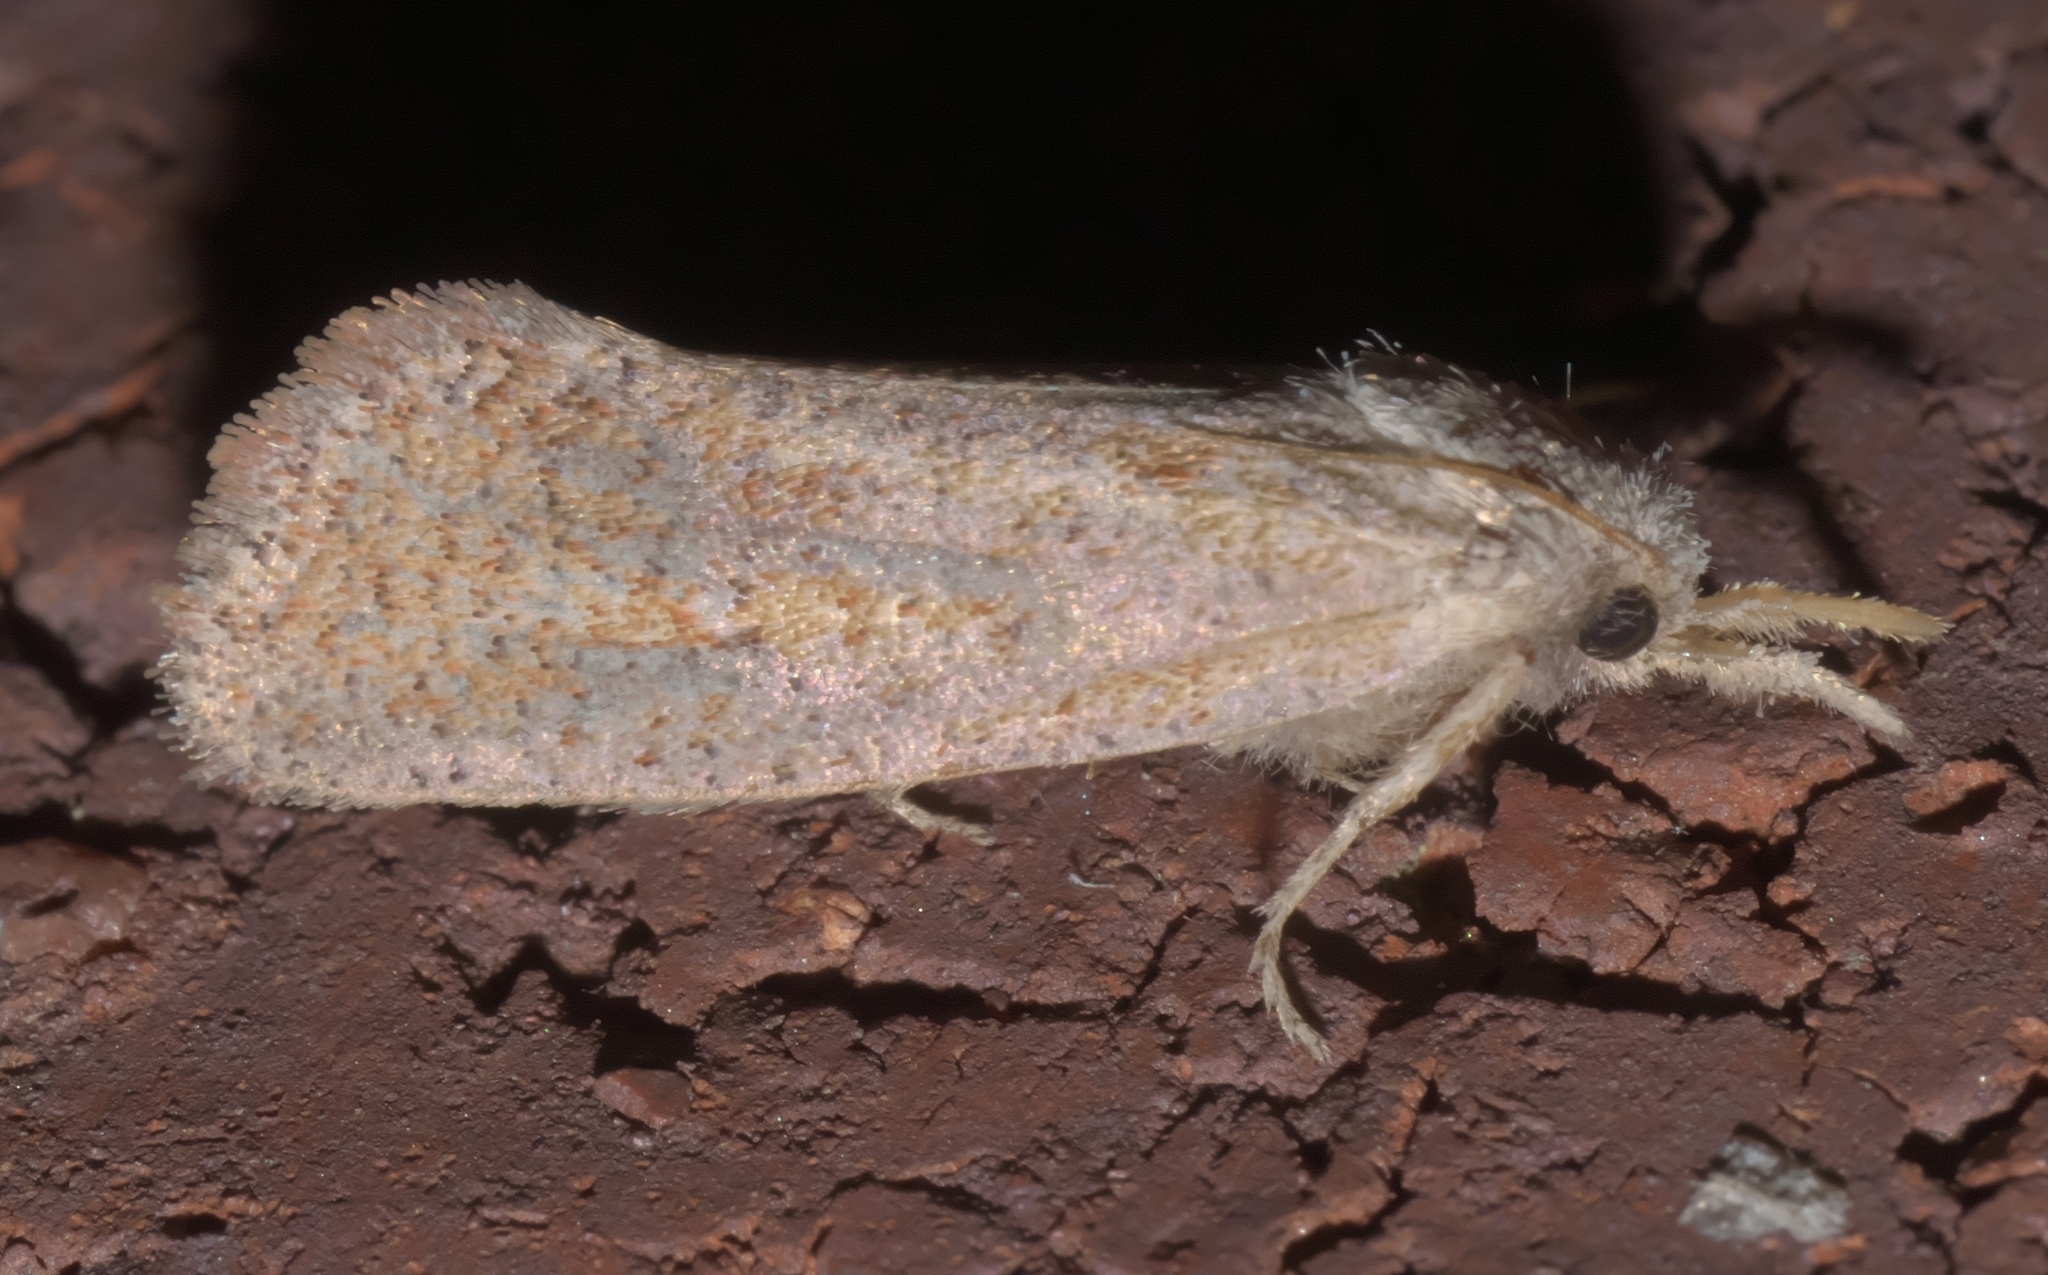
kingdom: Animalia
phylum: Arthropoda
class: Insecta
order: Lepidoptera
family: Tineidae
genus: Acrolophus
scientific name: Acrolophus plumifrontella
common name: Eastern grass tubeworm moth
